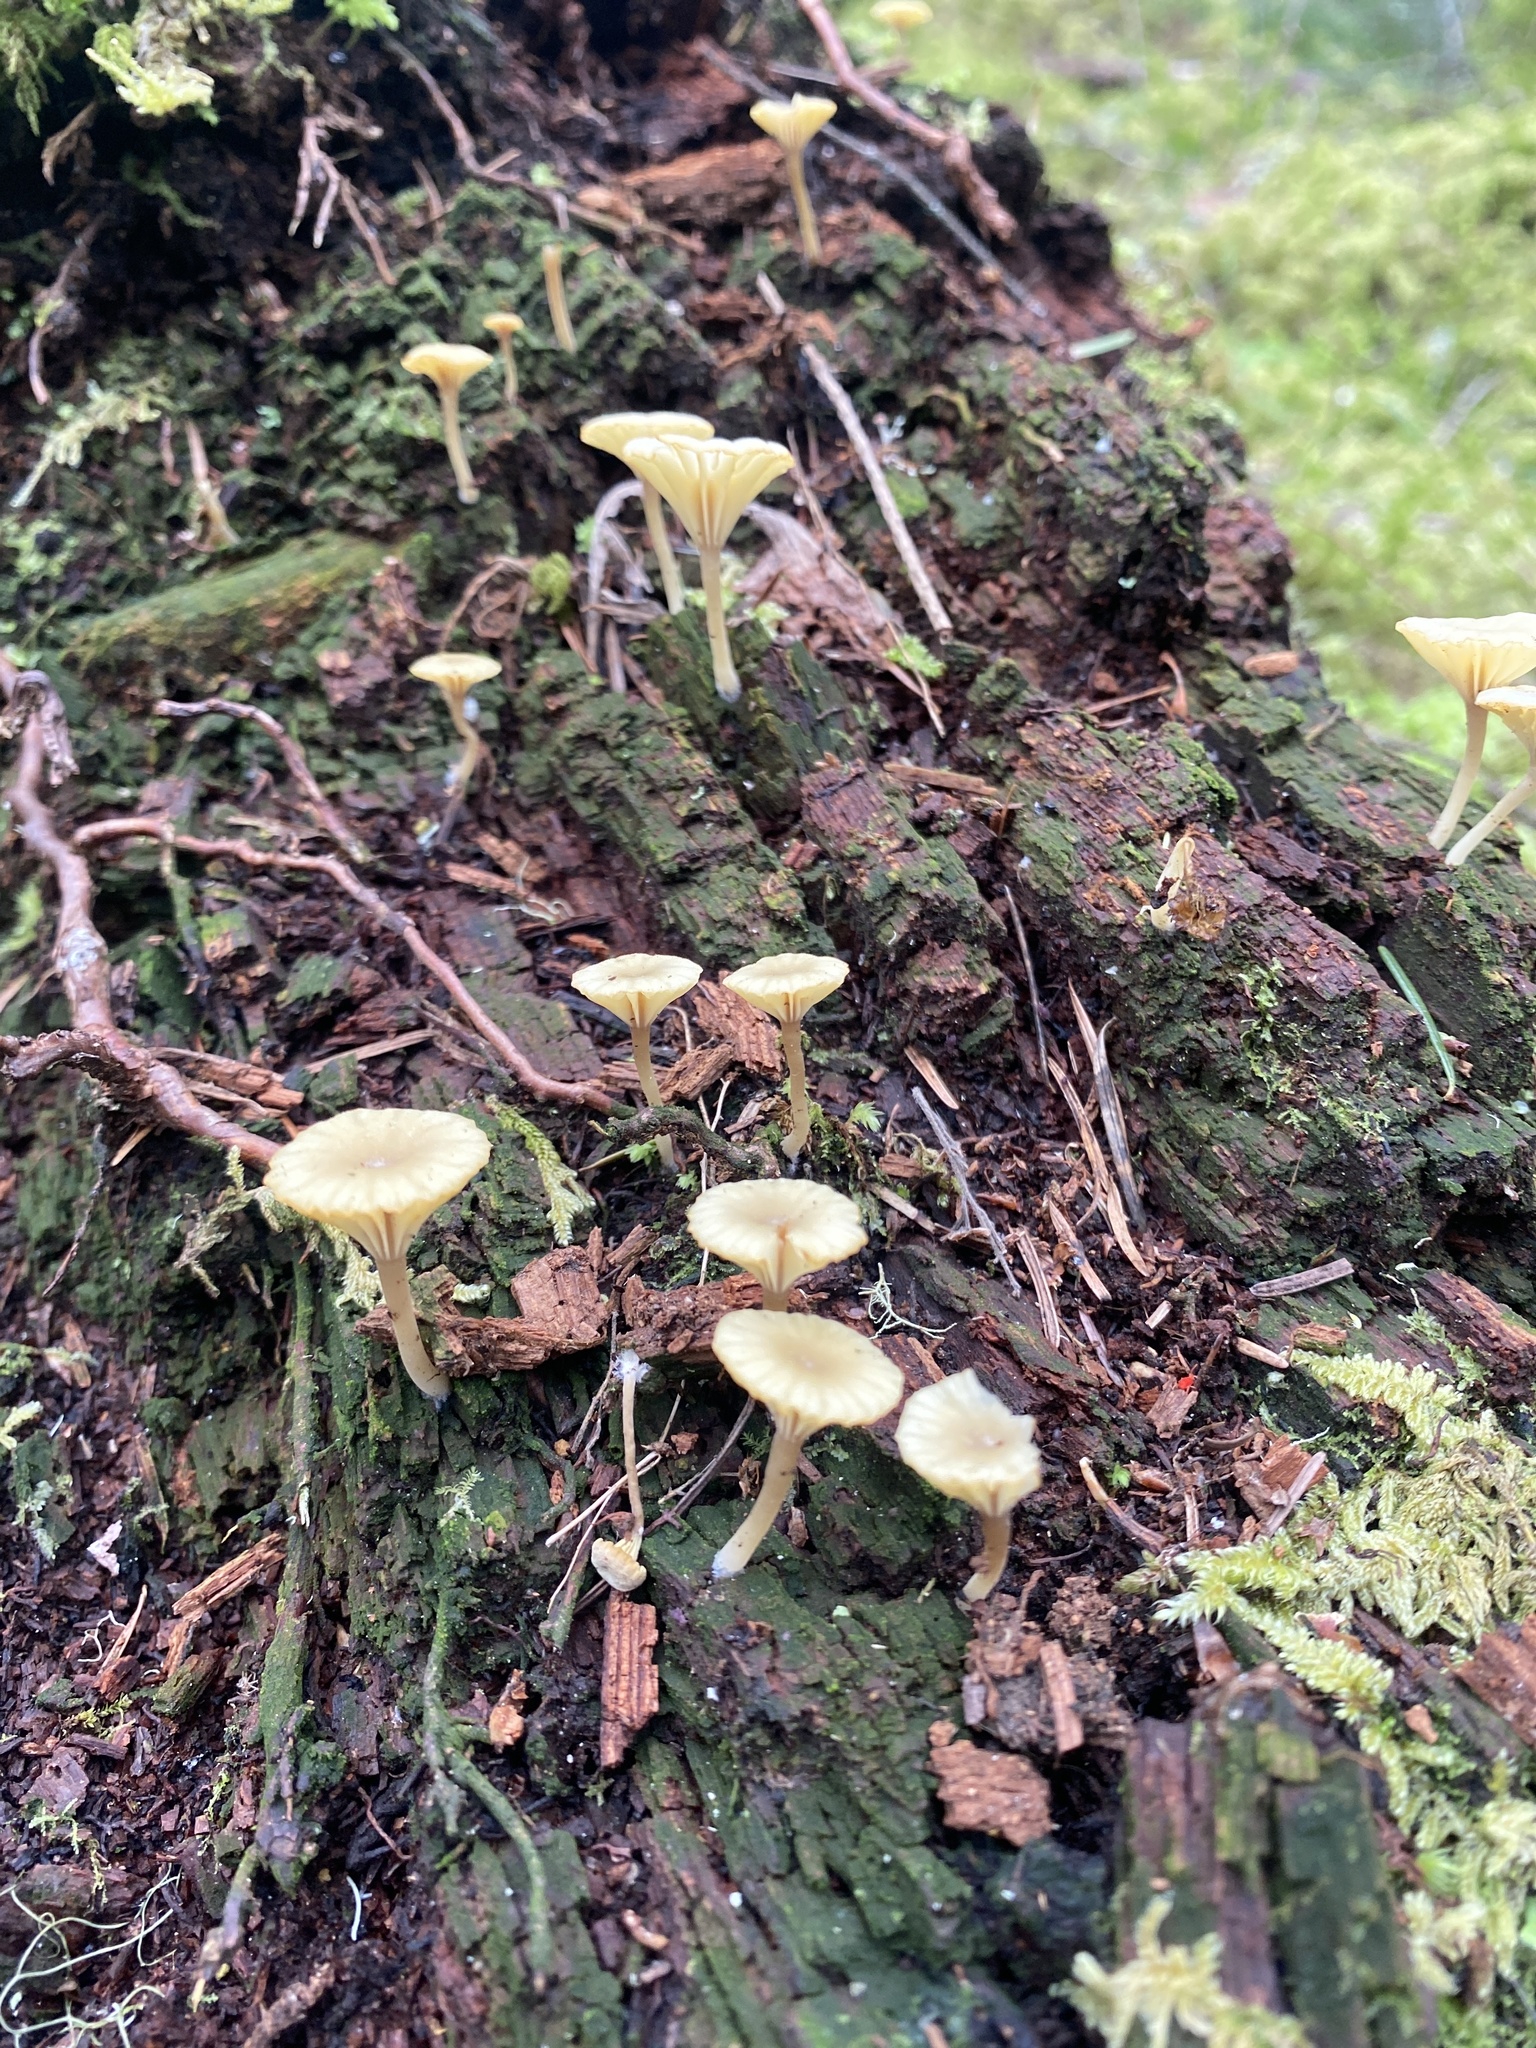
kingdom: Fungi
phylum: Basidiomycota
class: Agaricomycetes
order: Agaricales
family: Hygrophoraceae
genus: Lichenomphalia
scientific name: Lichenomphalia
